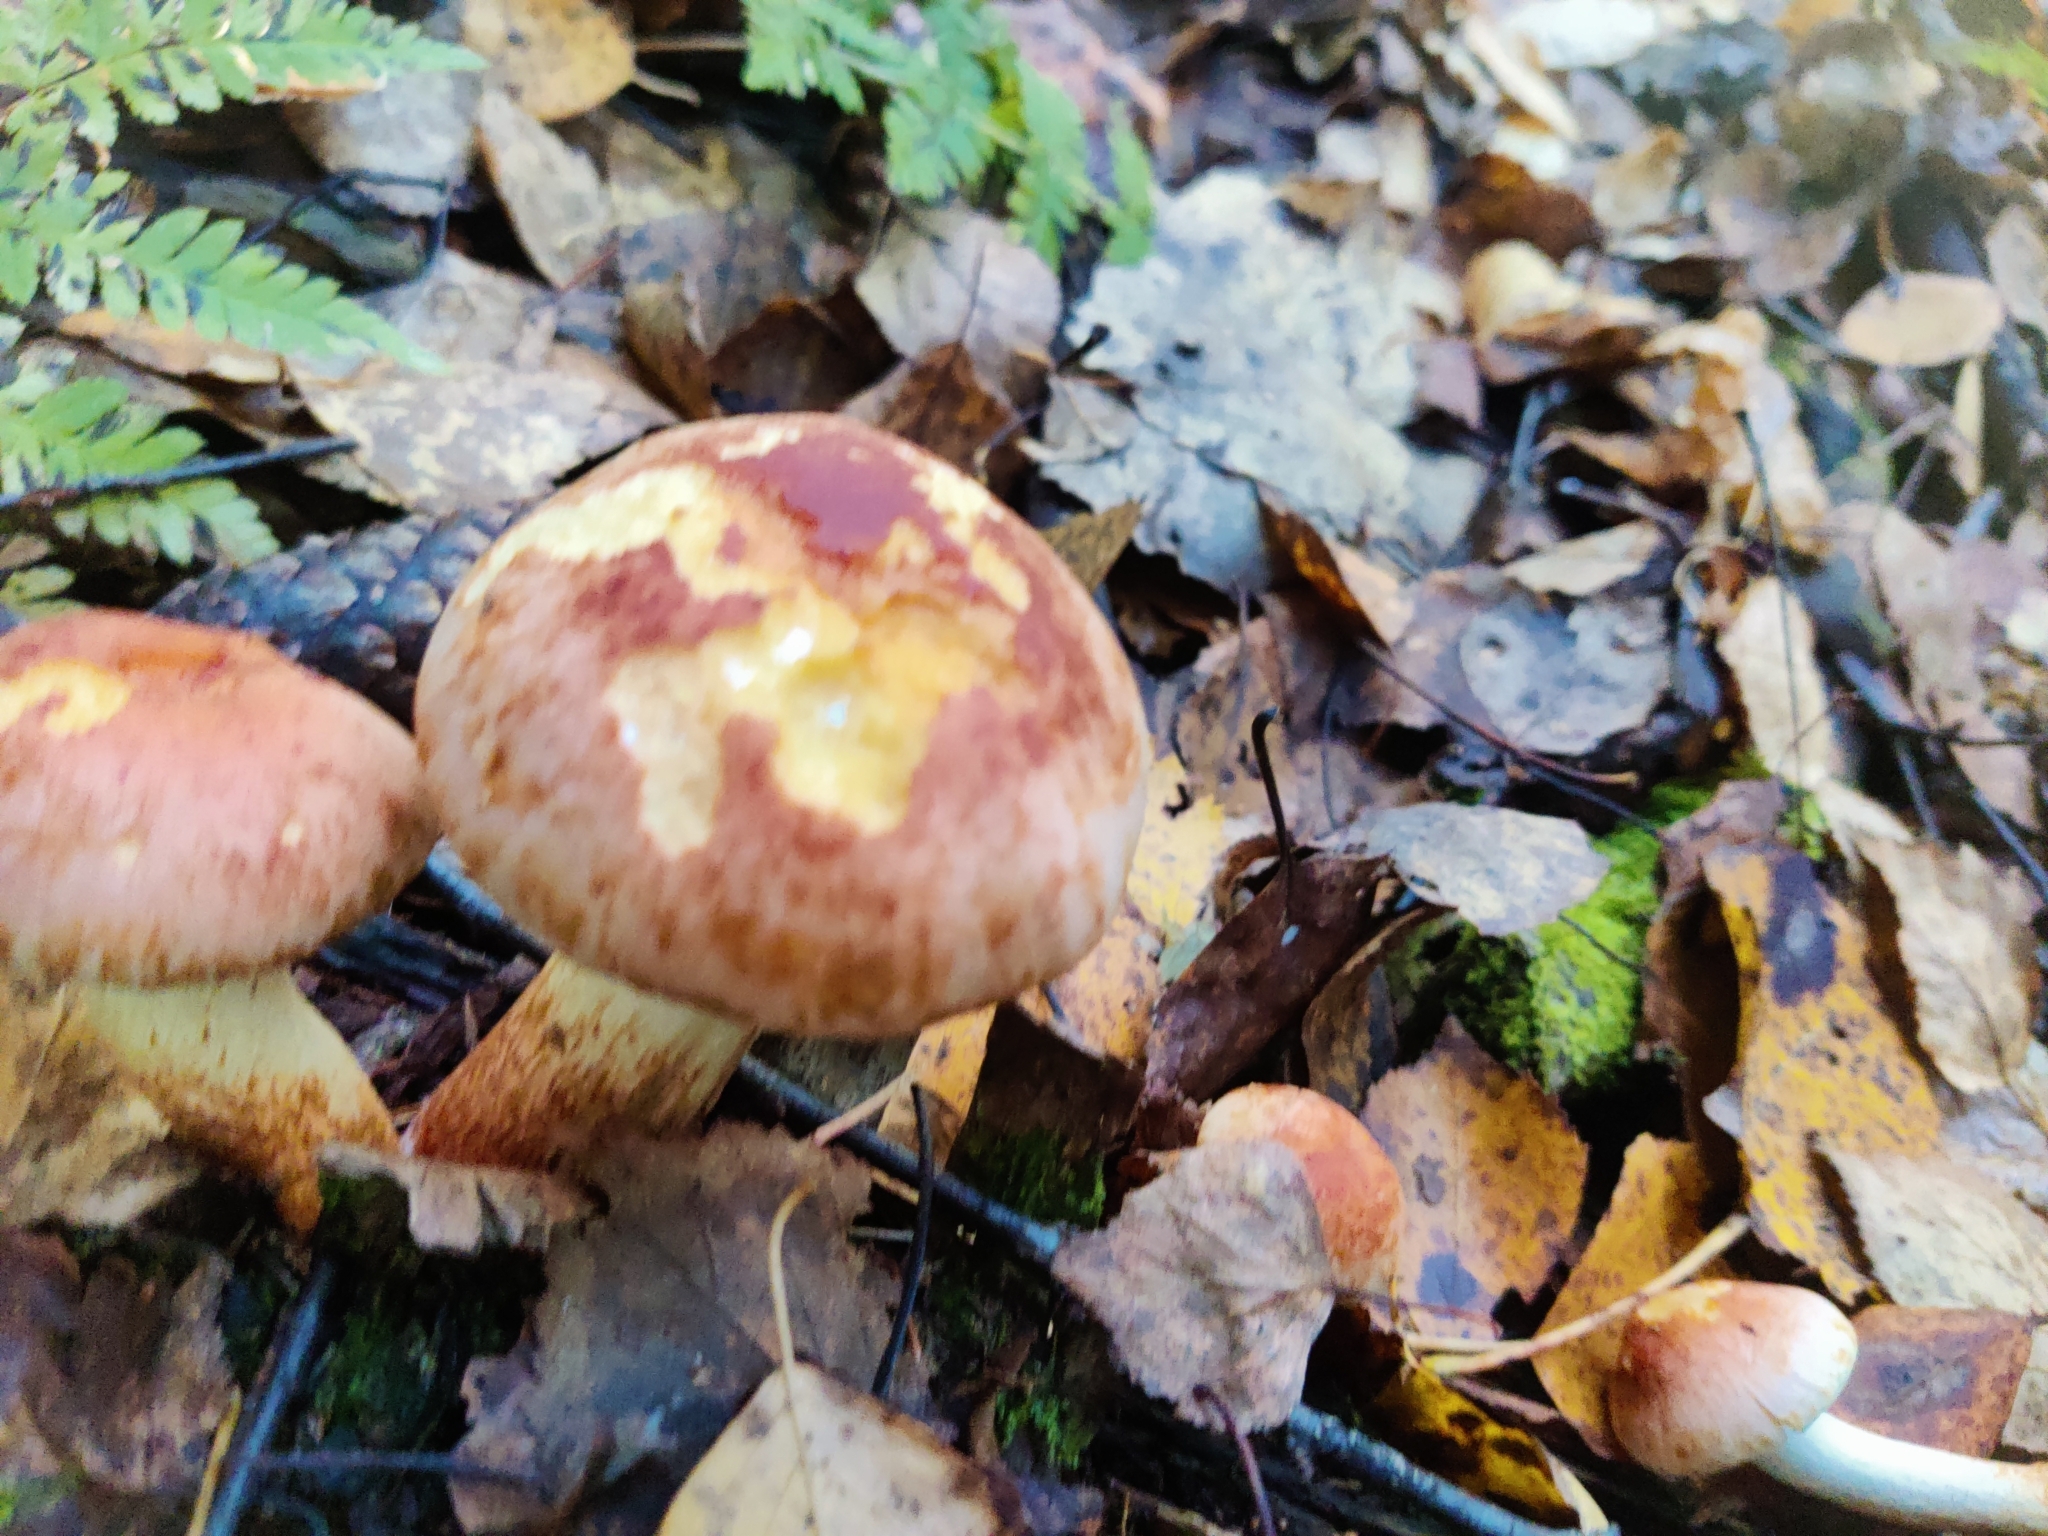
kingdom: Fungi
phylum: Basidiomycota
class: Agaricomycetes
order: Agaricales
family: Strophariaceae
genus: Hypholoma
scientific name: Hypholoma lateritium
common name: Brick caps
